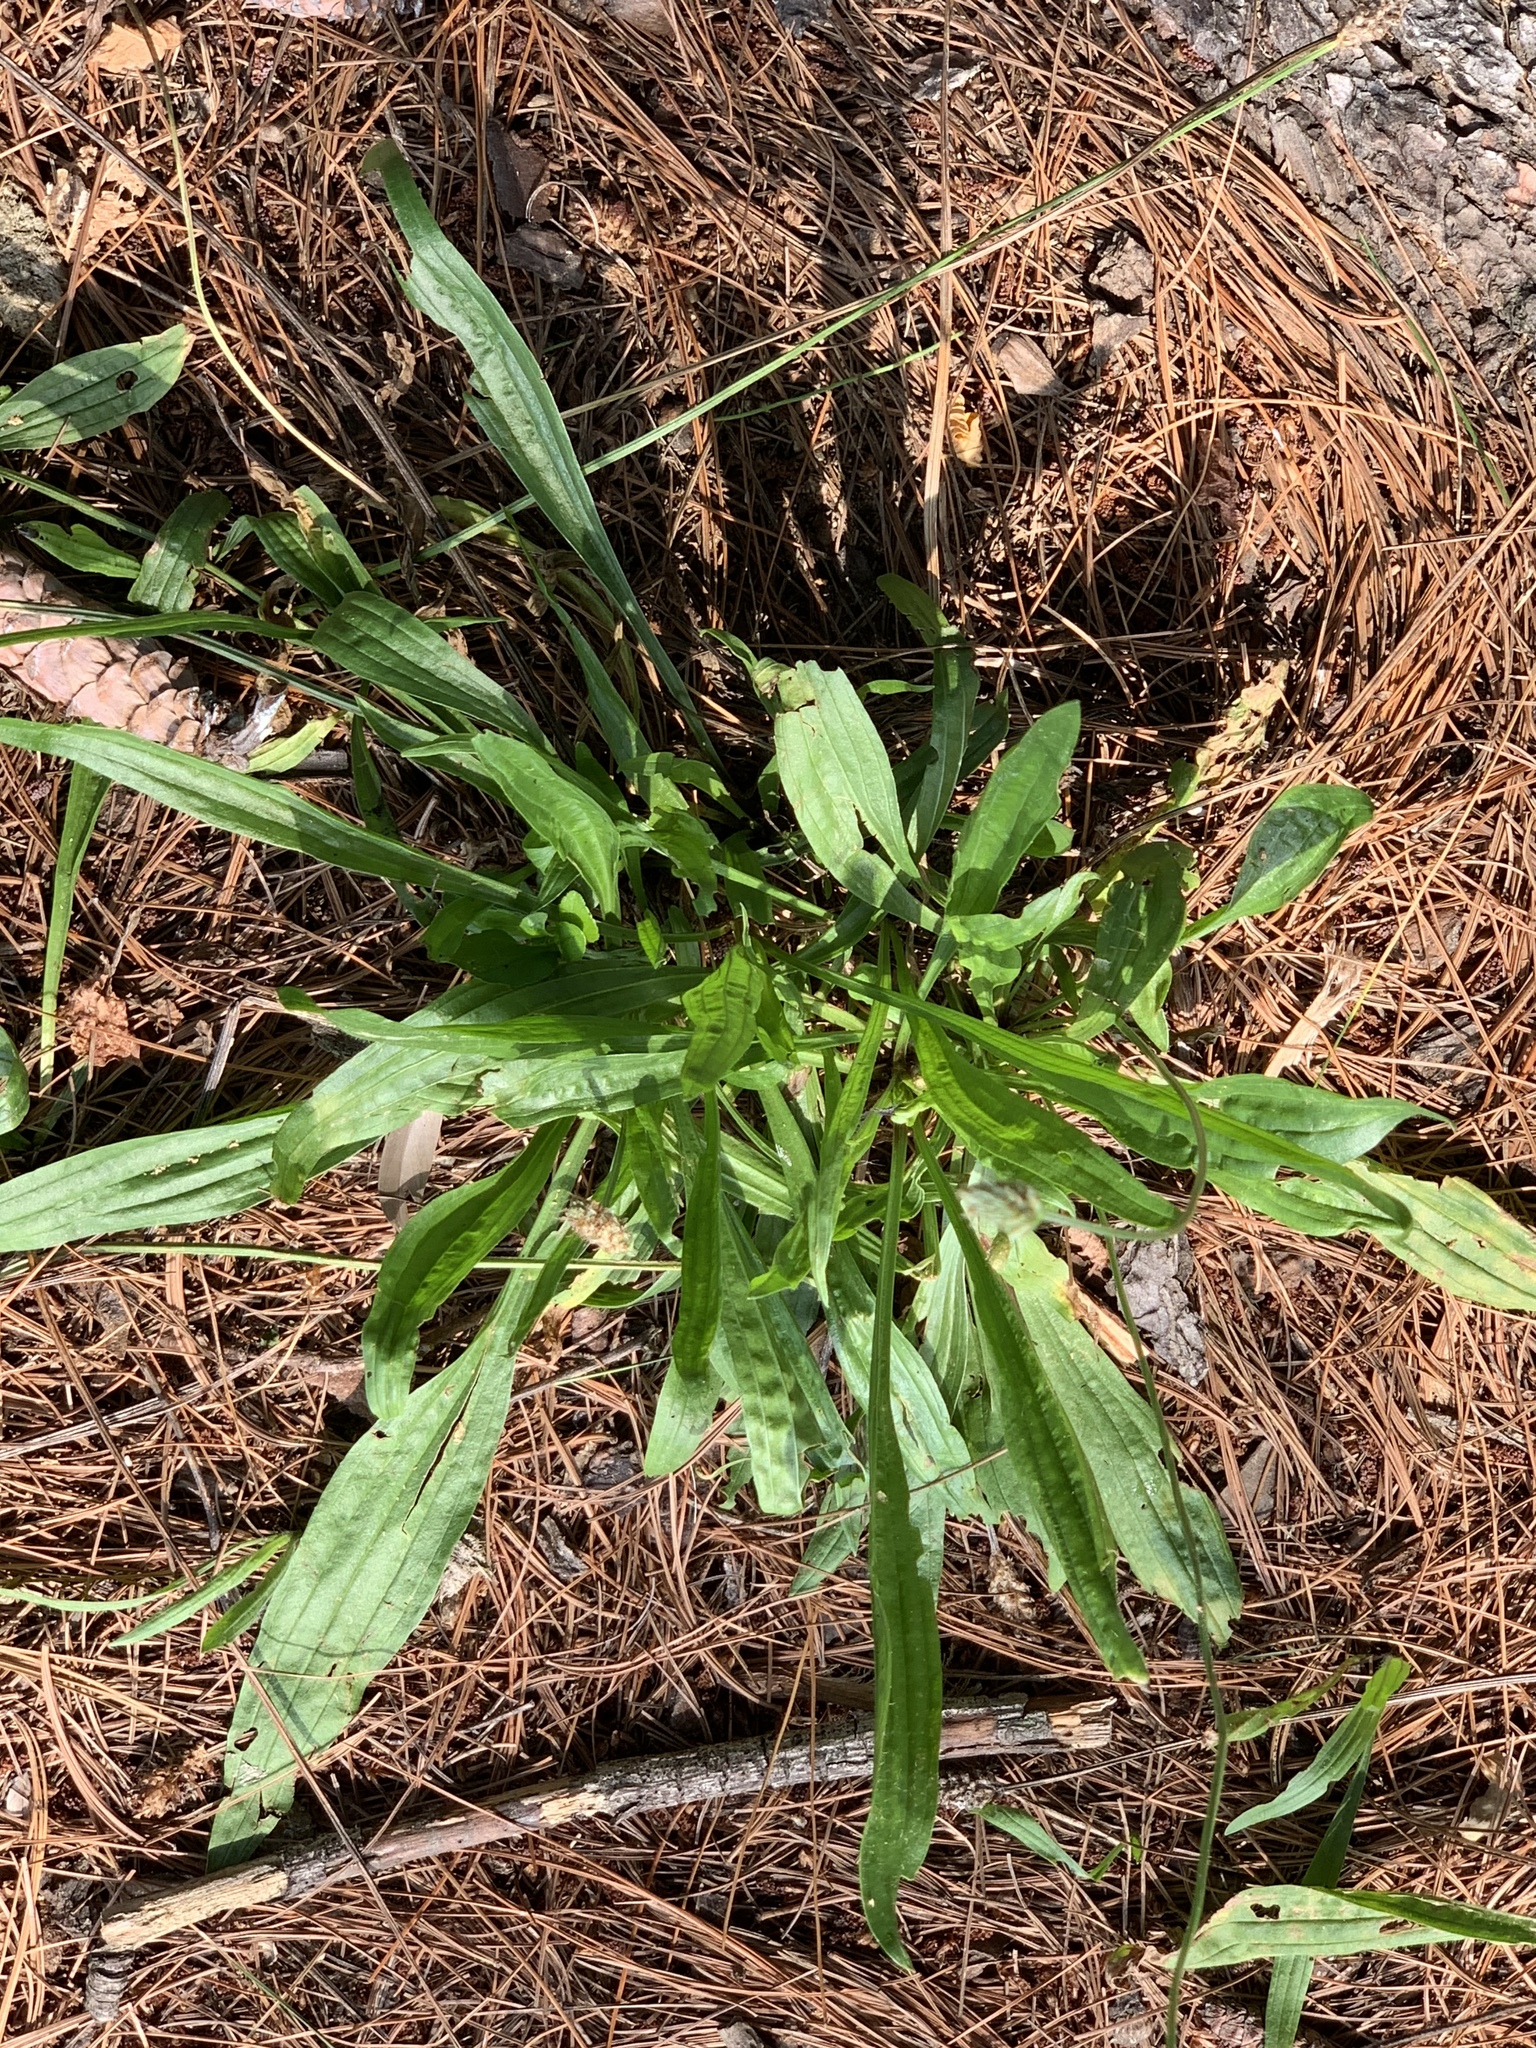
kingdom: Plantae
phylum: Tracheophyta
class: Magnoliopsida
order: Lamiales
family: Plantaginaceae
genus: Plantago
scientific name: Plantago lanceolata
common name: Ribwort plantain
